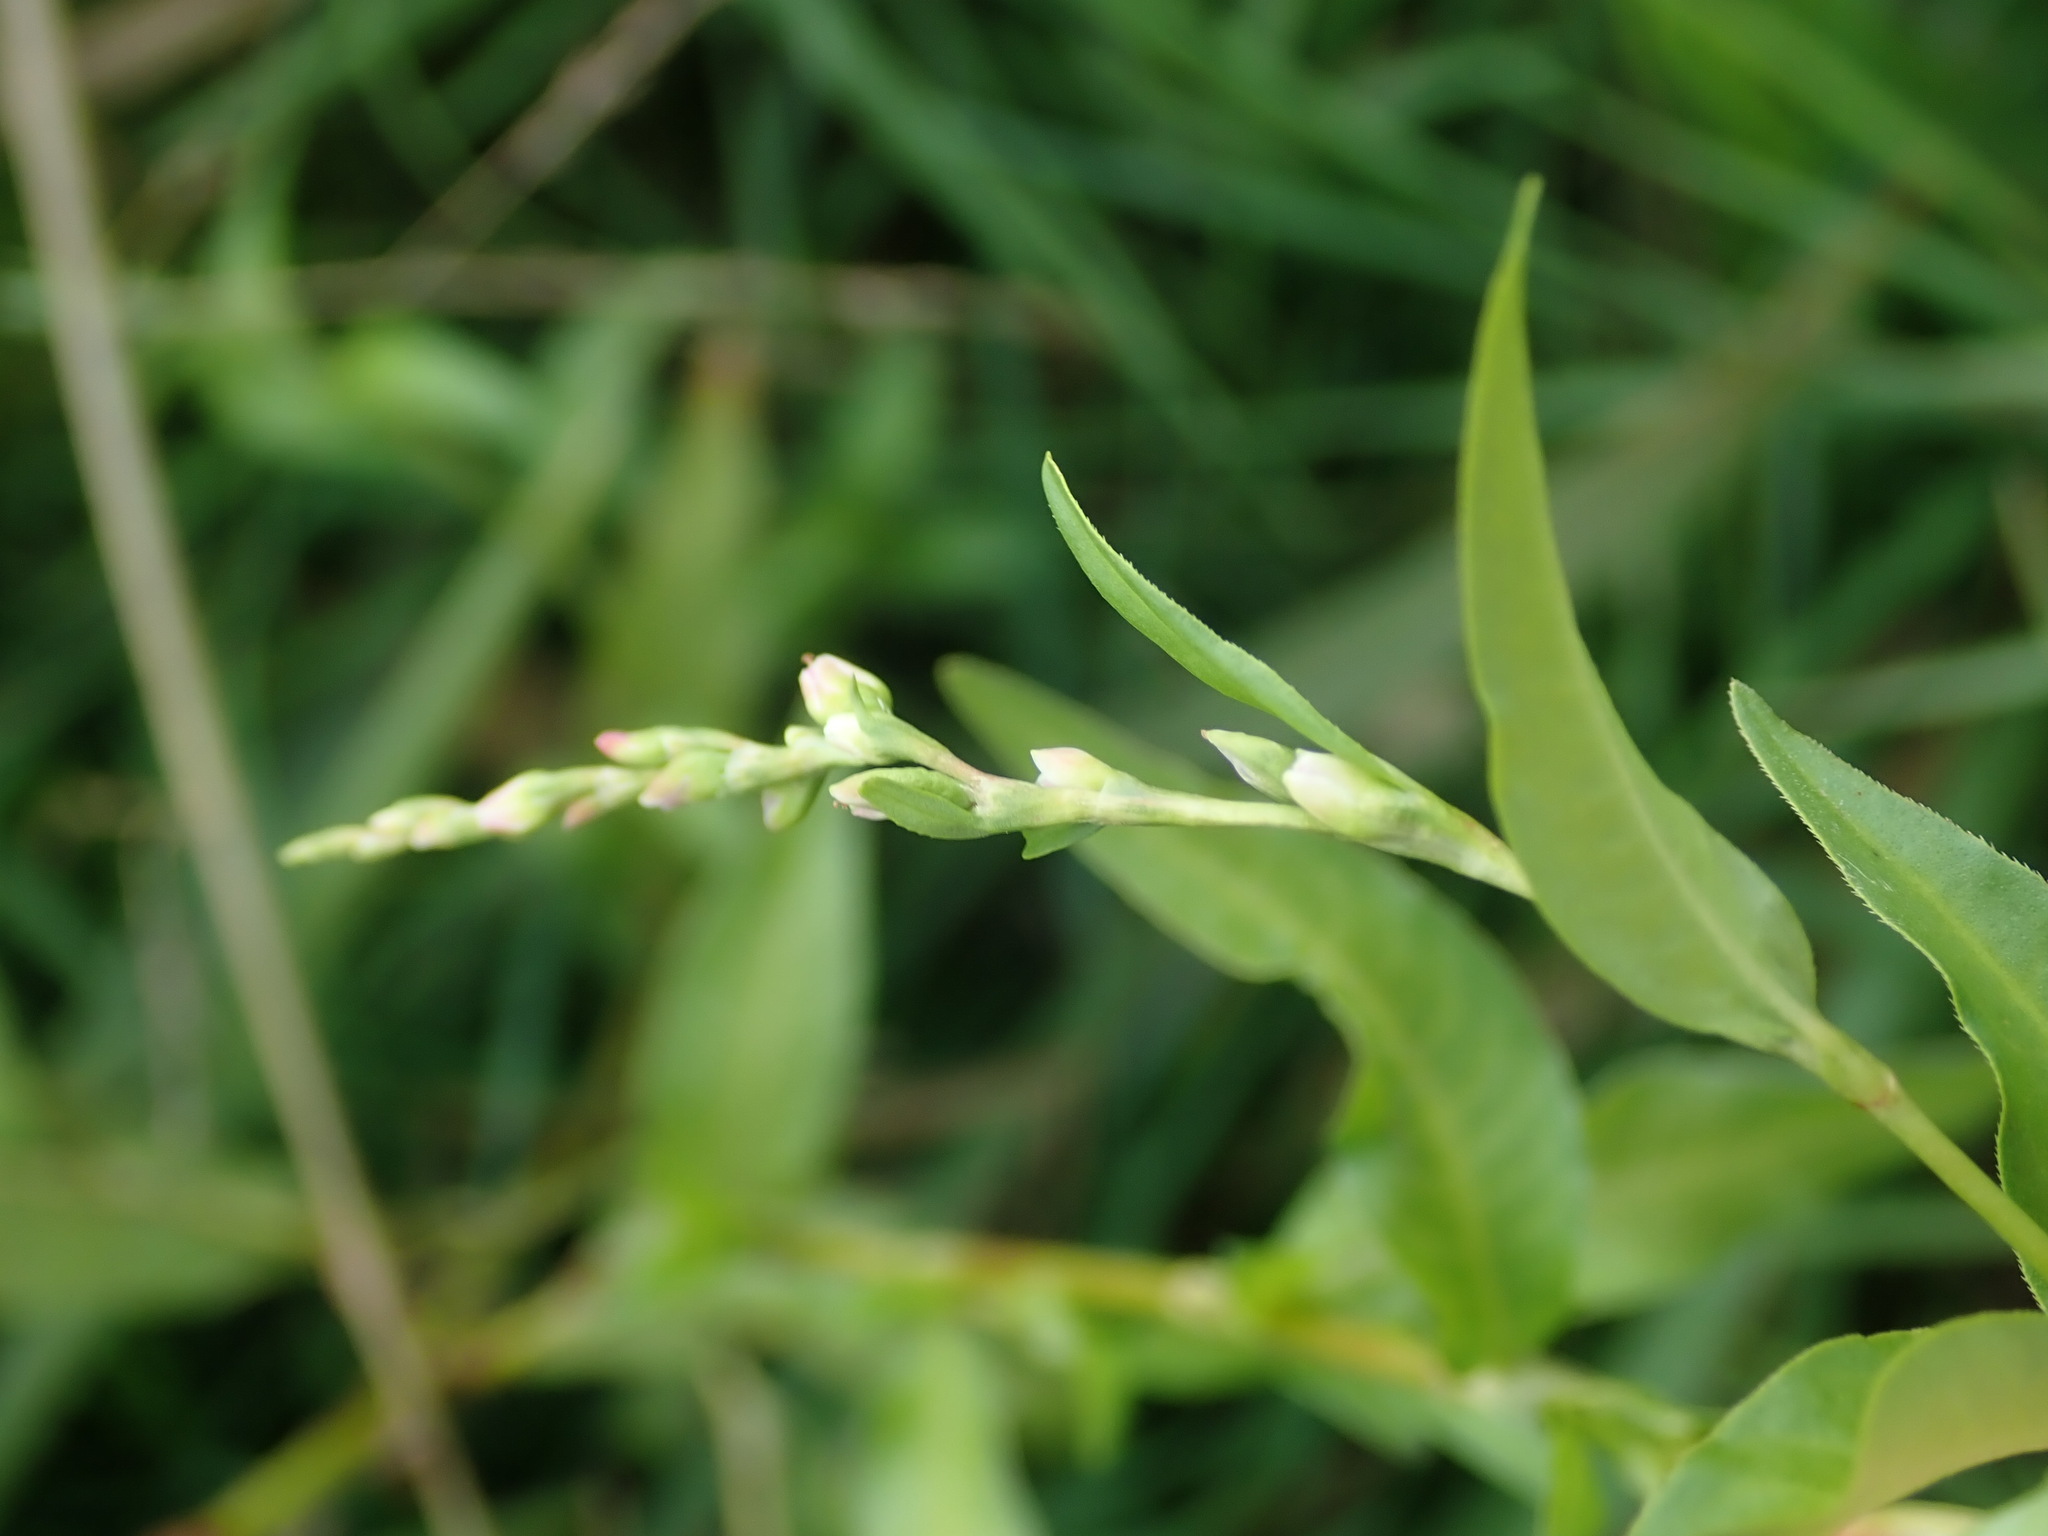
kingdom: Plantae
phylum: Tracheophyta
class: Magnoliopsida
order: Caryophyllales
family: Polygonaceae
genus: Persicaria
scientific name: Persicaria hydropiper
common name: Water-pepper
